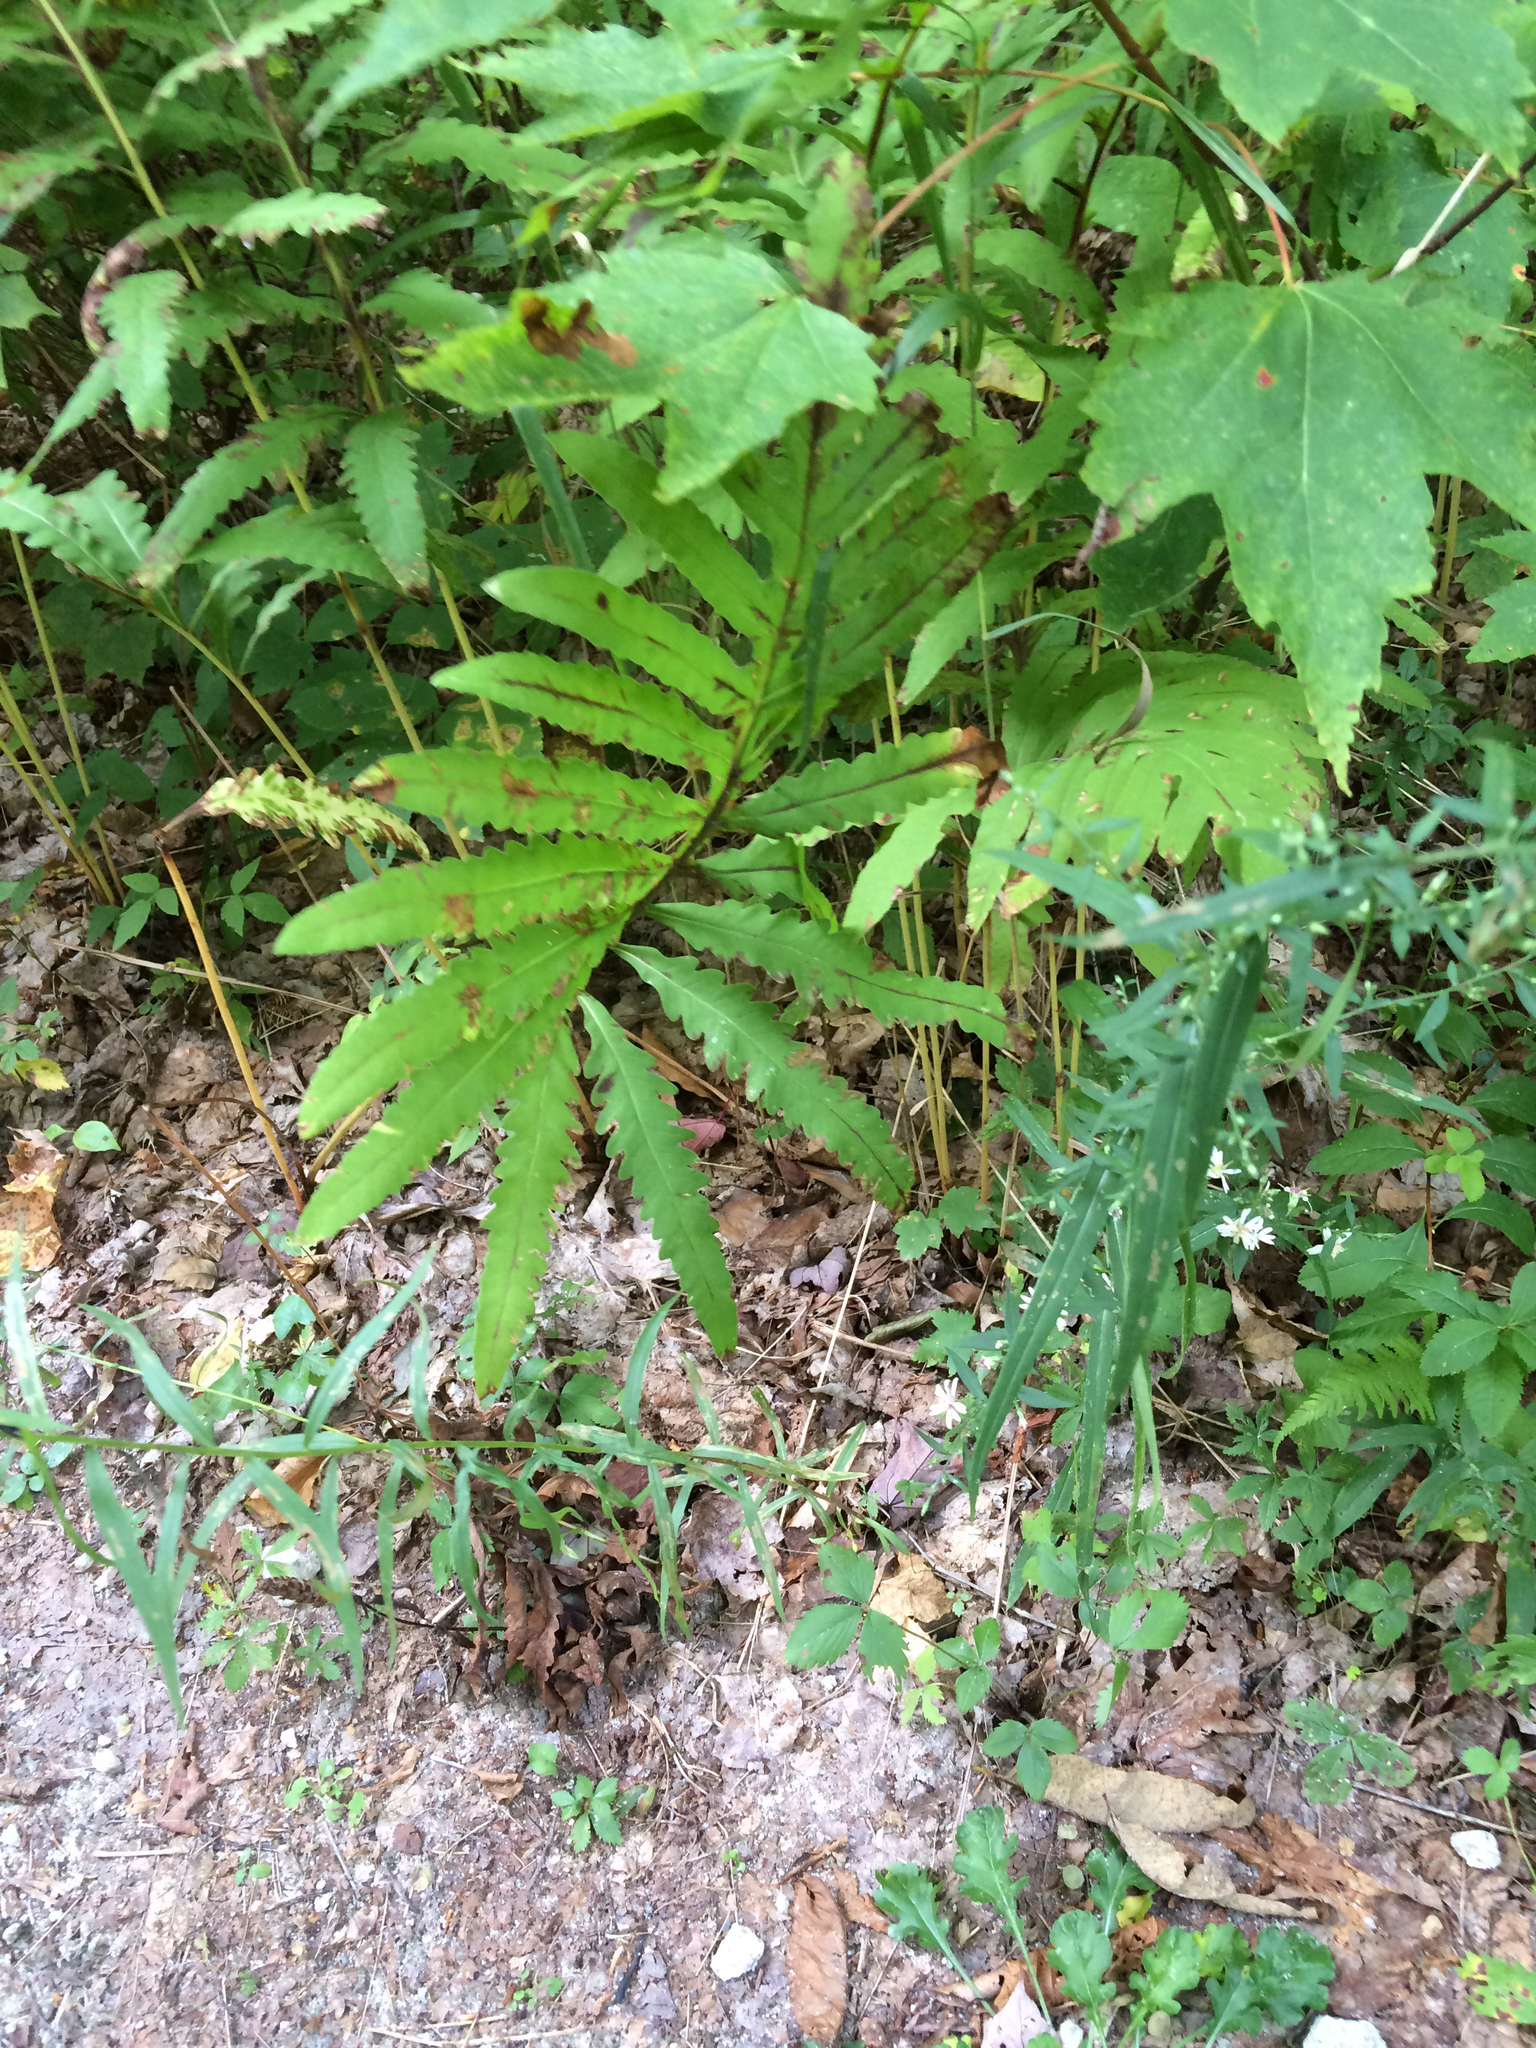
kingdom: Plantae
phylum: Tracheophyta
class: Polypodiopsida
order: Polypodiales
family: Onocleaceae
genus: Onoclea
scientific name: Onoclea sensibilis
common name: Sensitive fern
